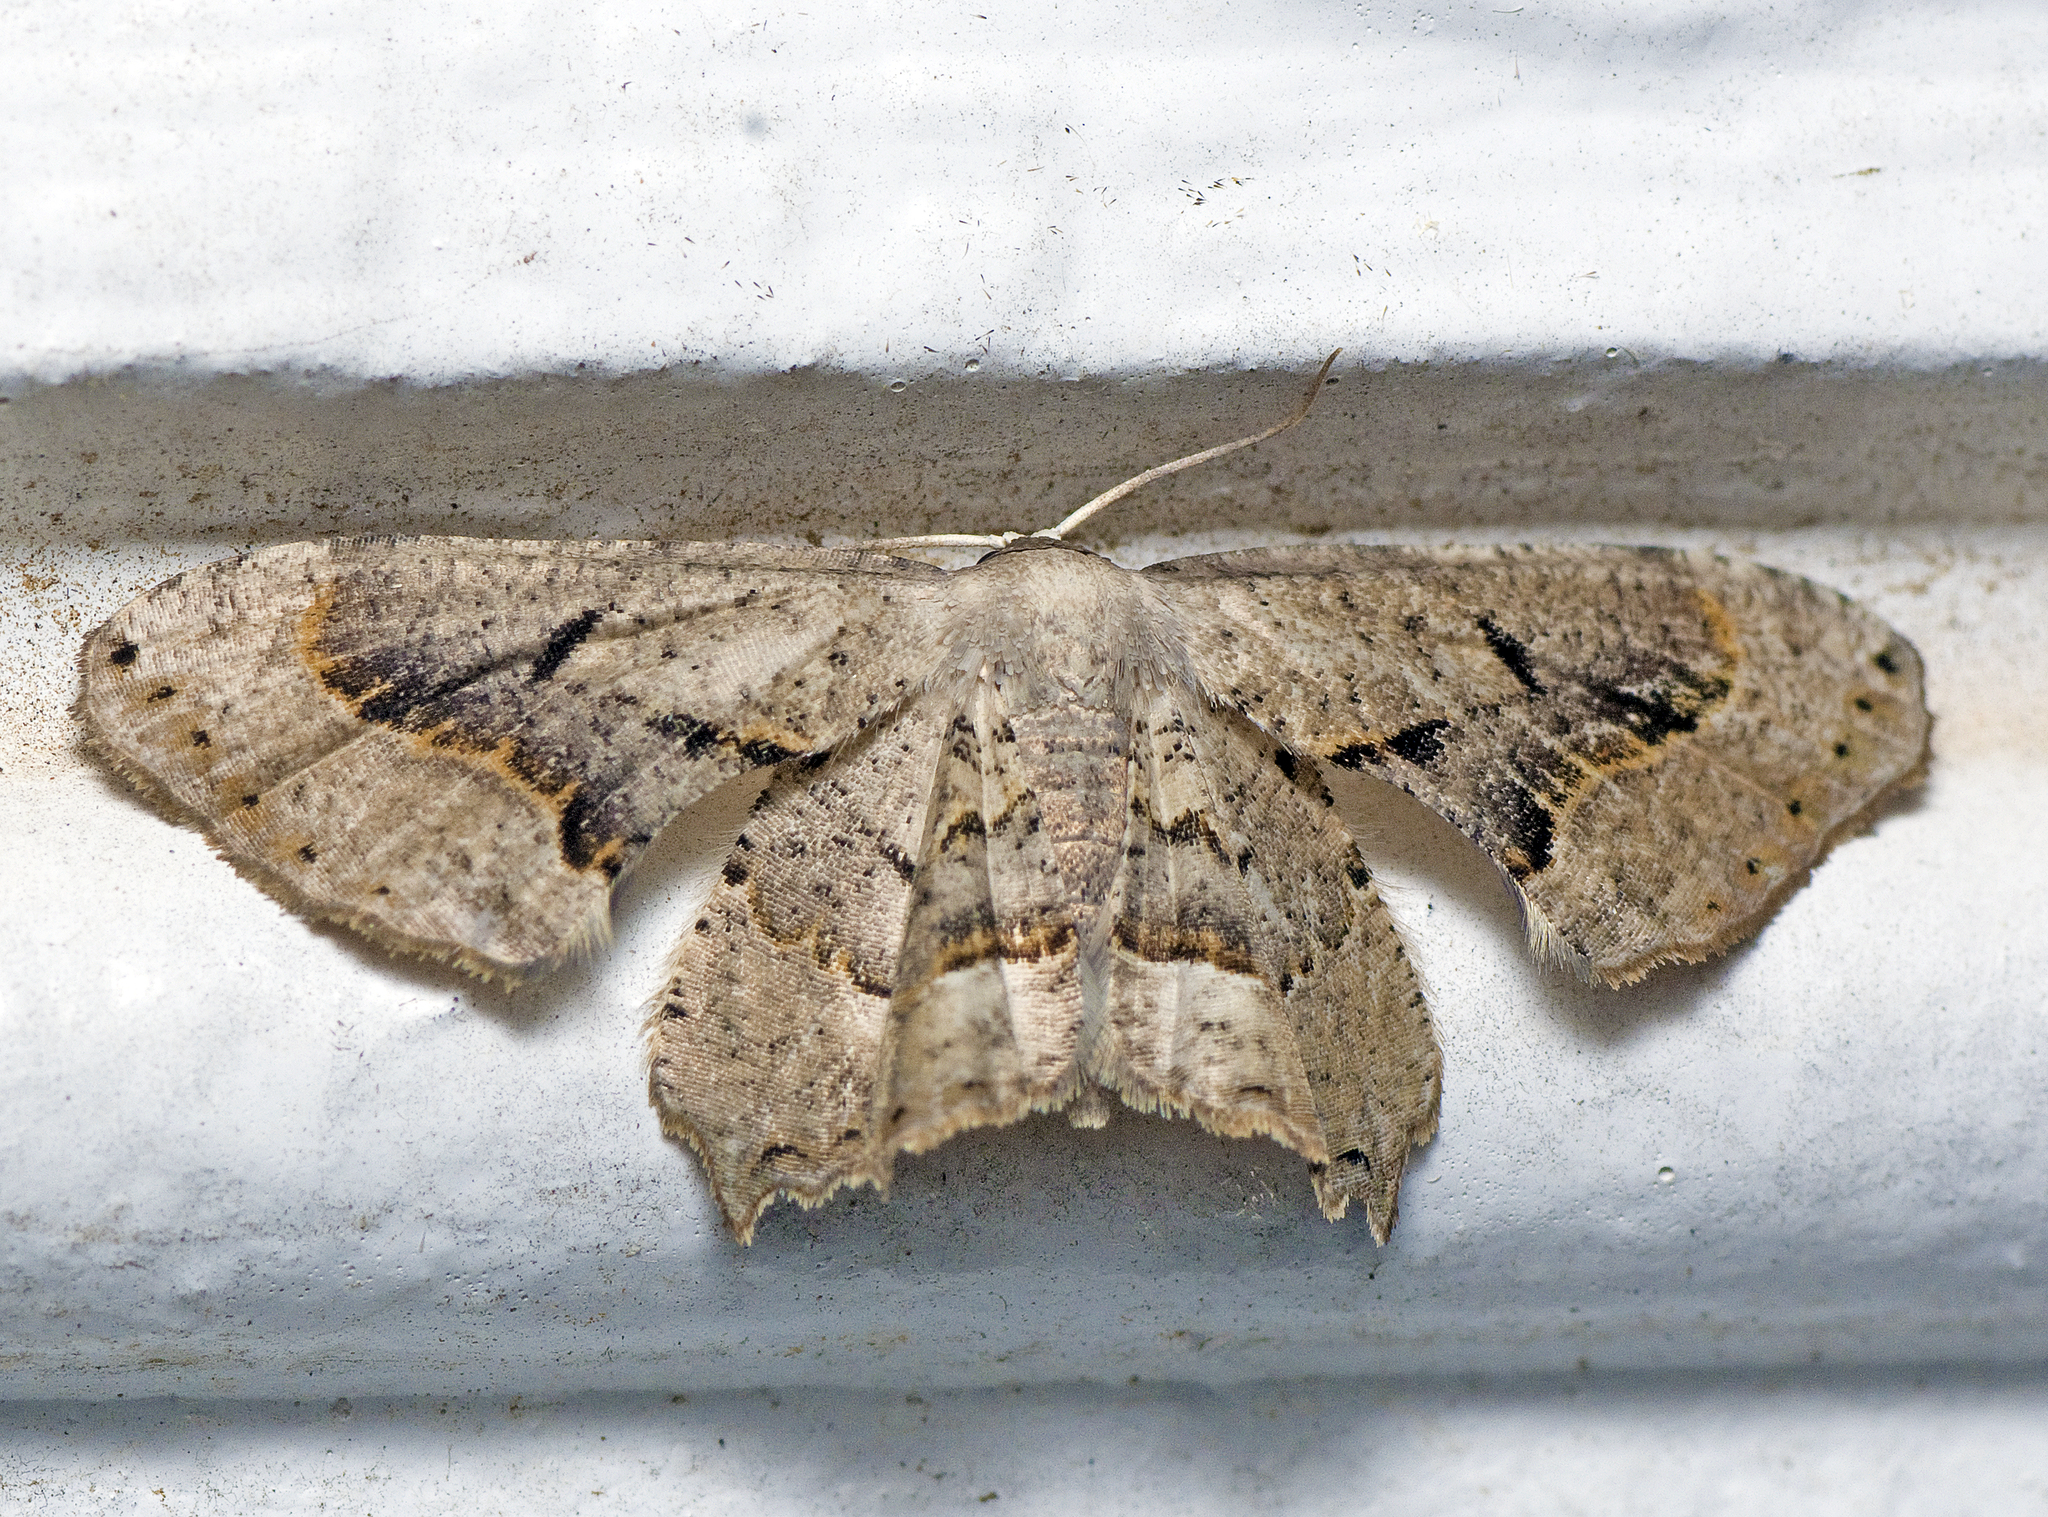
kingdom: Animalia
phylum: Arthropoda
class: Insecta
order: Lepidoptera
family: Uraniidae
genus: Phazaca
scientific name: Phazaca leucocephala
